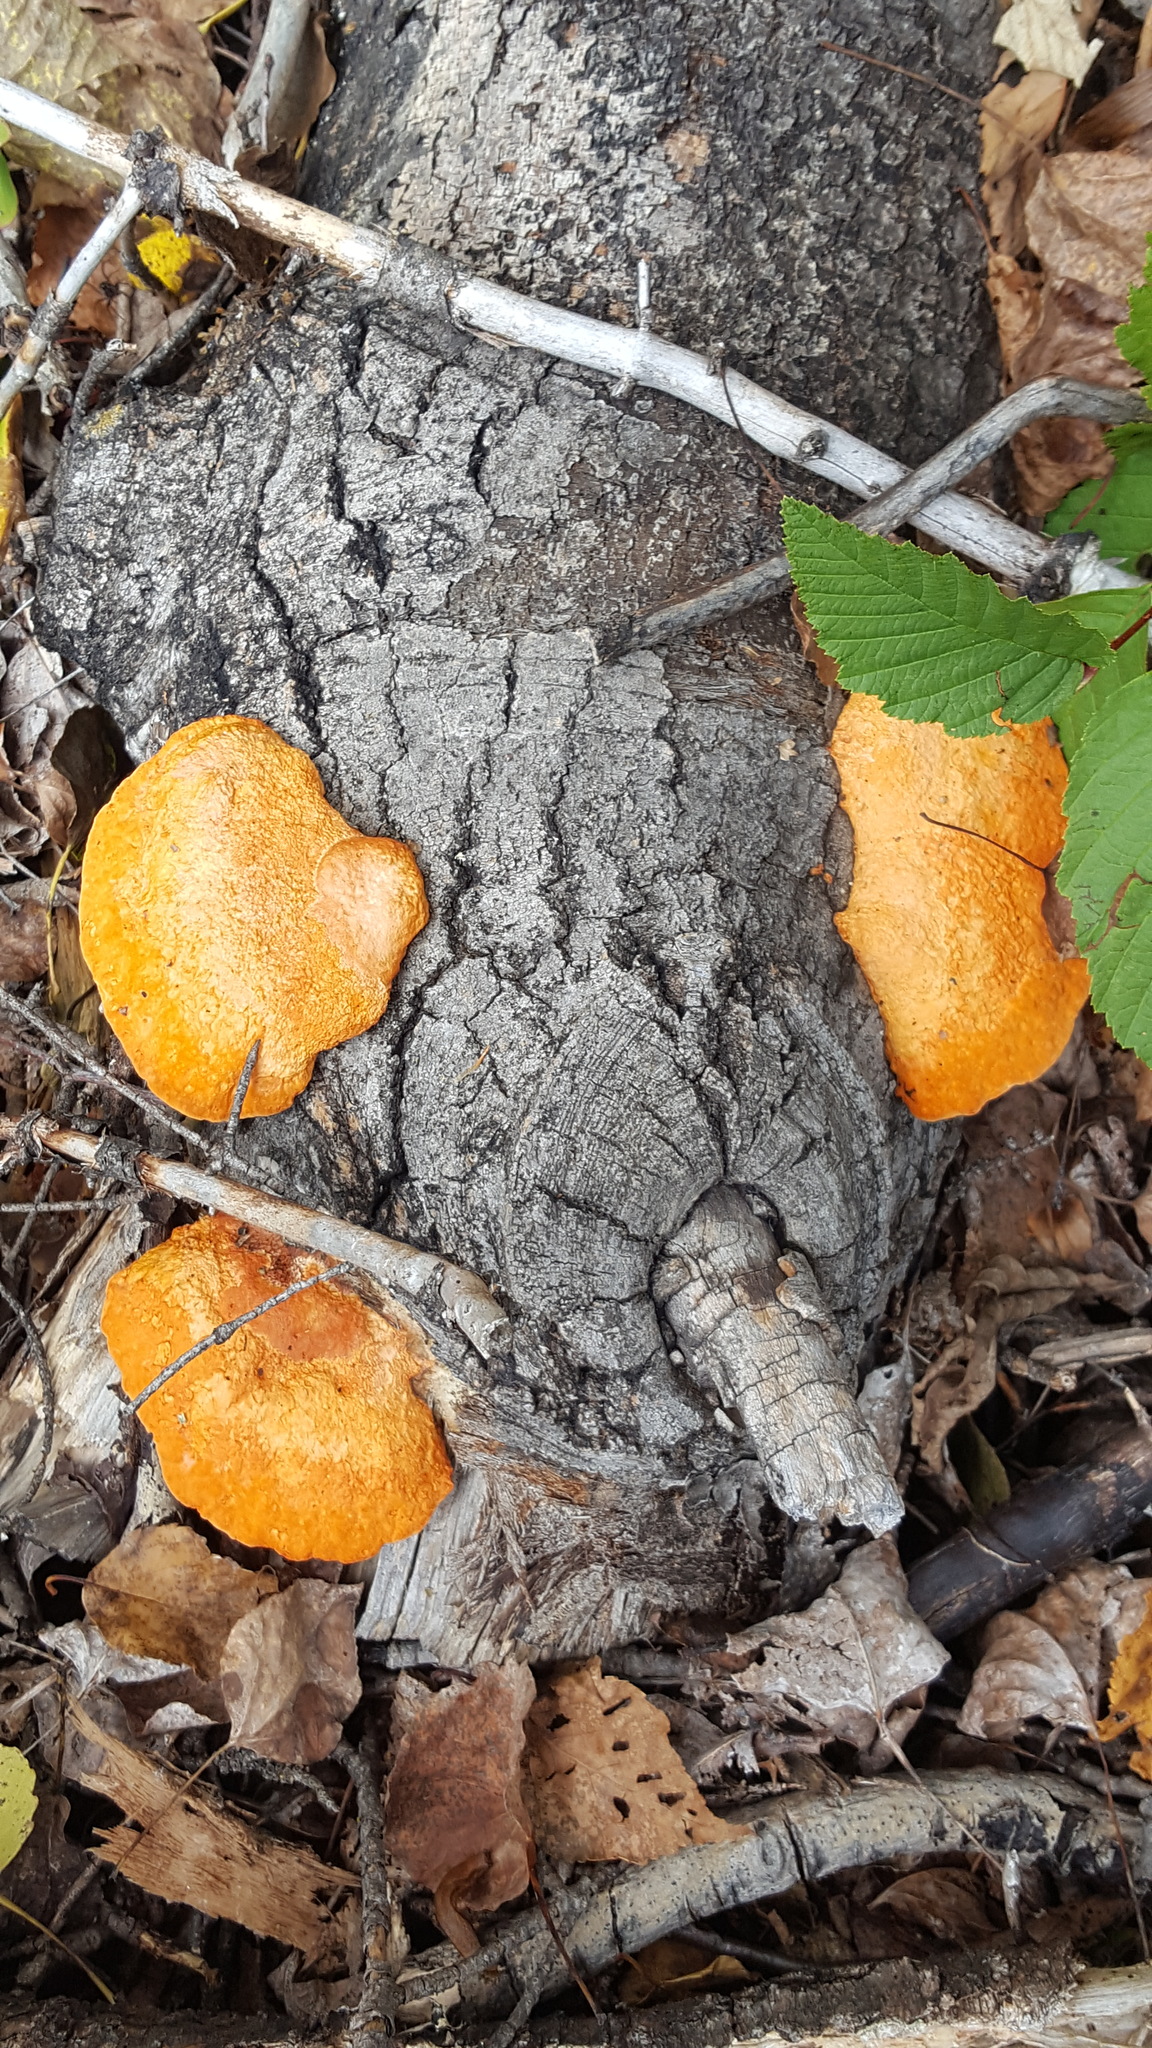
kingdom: Fungi
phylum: Basidiomycota
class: Agaricomycetes
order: Polyporales
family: Polyporaceae
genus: Trametes
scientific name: Trametes cinnabarina
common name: Northern cinnabar polypore
